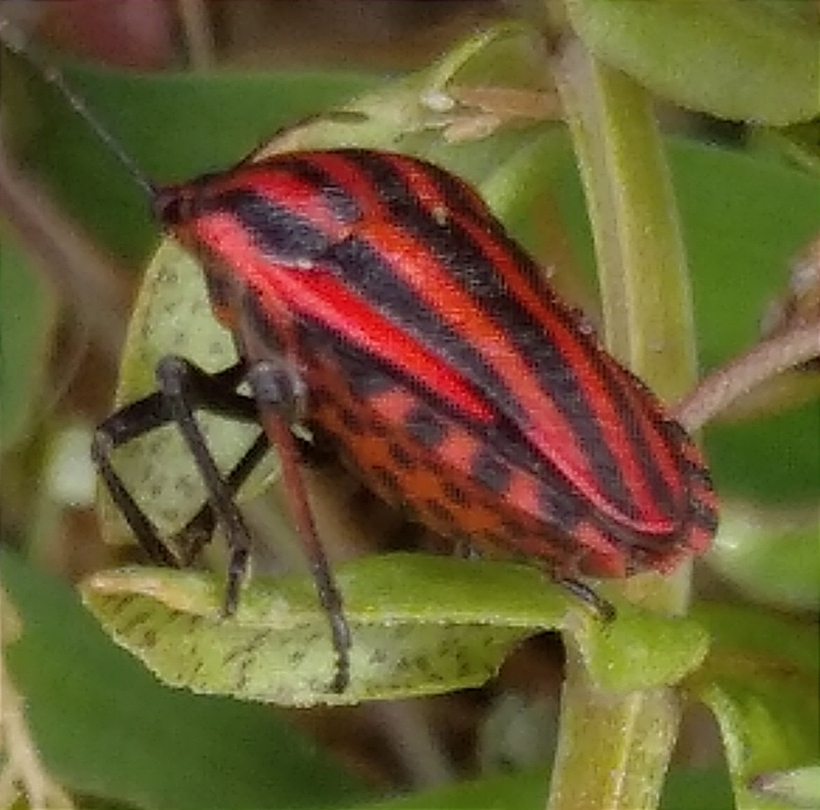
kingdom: Animalia
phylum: Arthropoda
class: Insecta
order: Hemiptera
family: Pentatomidae
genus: Graphosoma
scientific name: Graphosoma italicum
